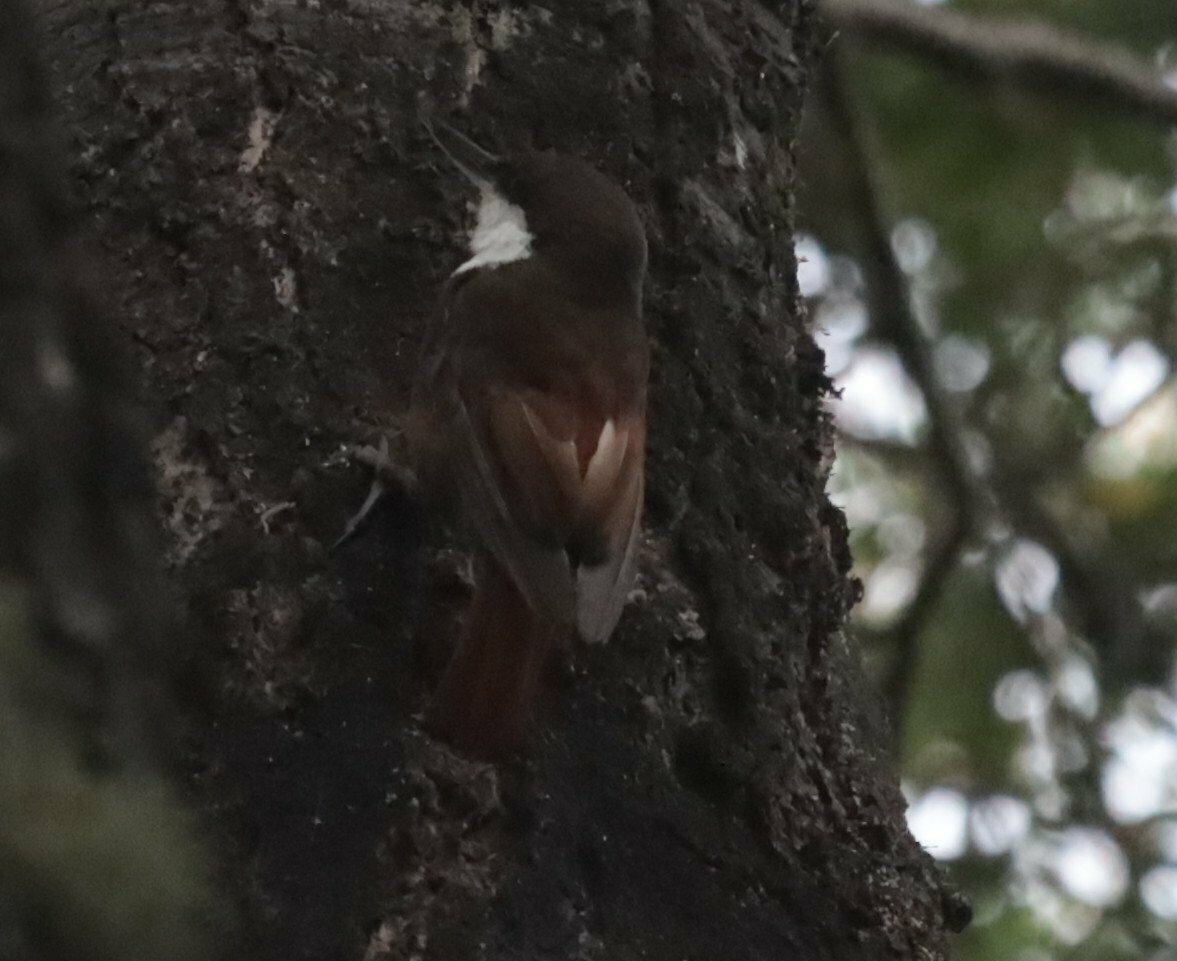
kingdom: Animalia
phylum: Chordata
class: Aves
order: Passeriformes
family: Furnariidae
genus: Pygarrhichas
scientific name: Pygarrhichas albogularis
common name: White-throated treerunner
